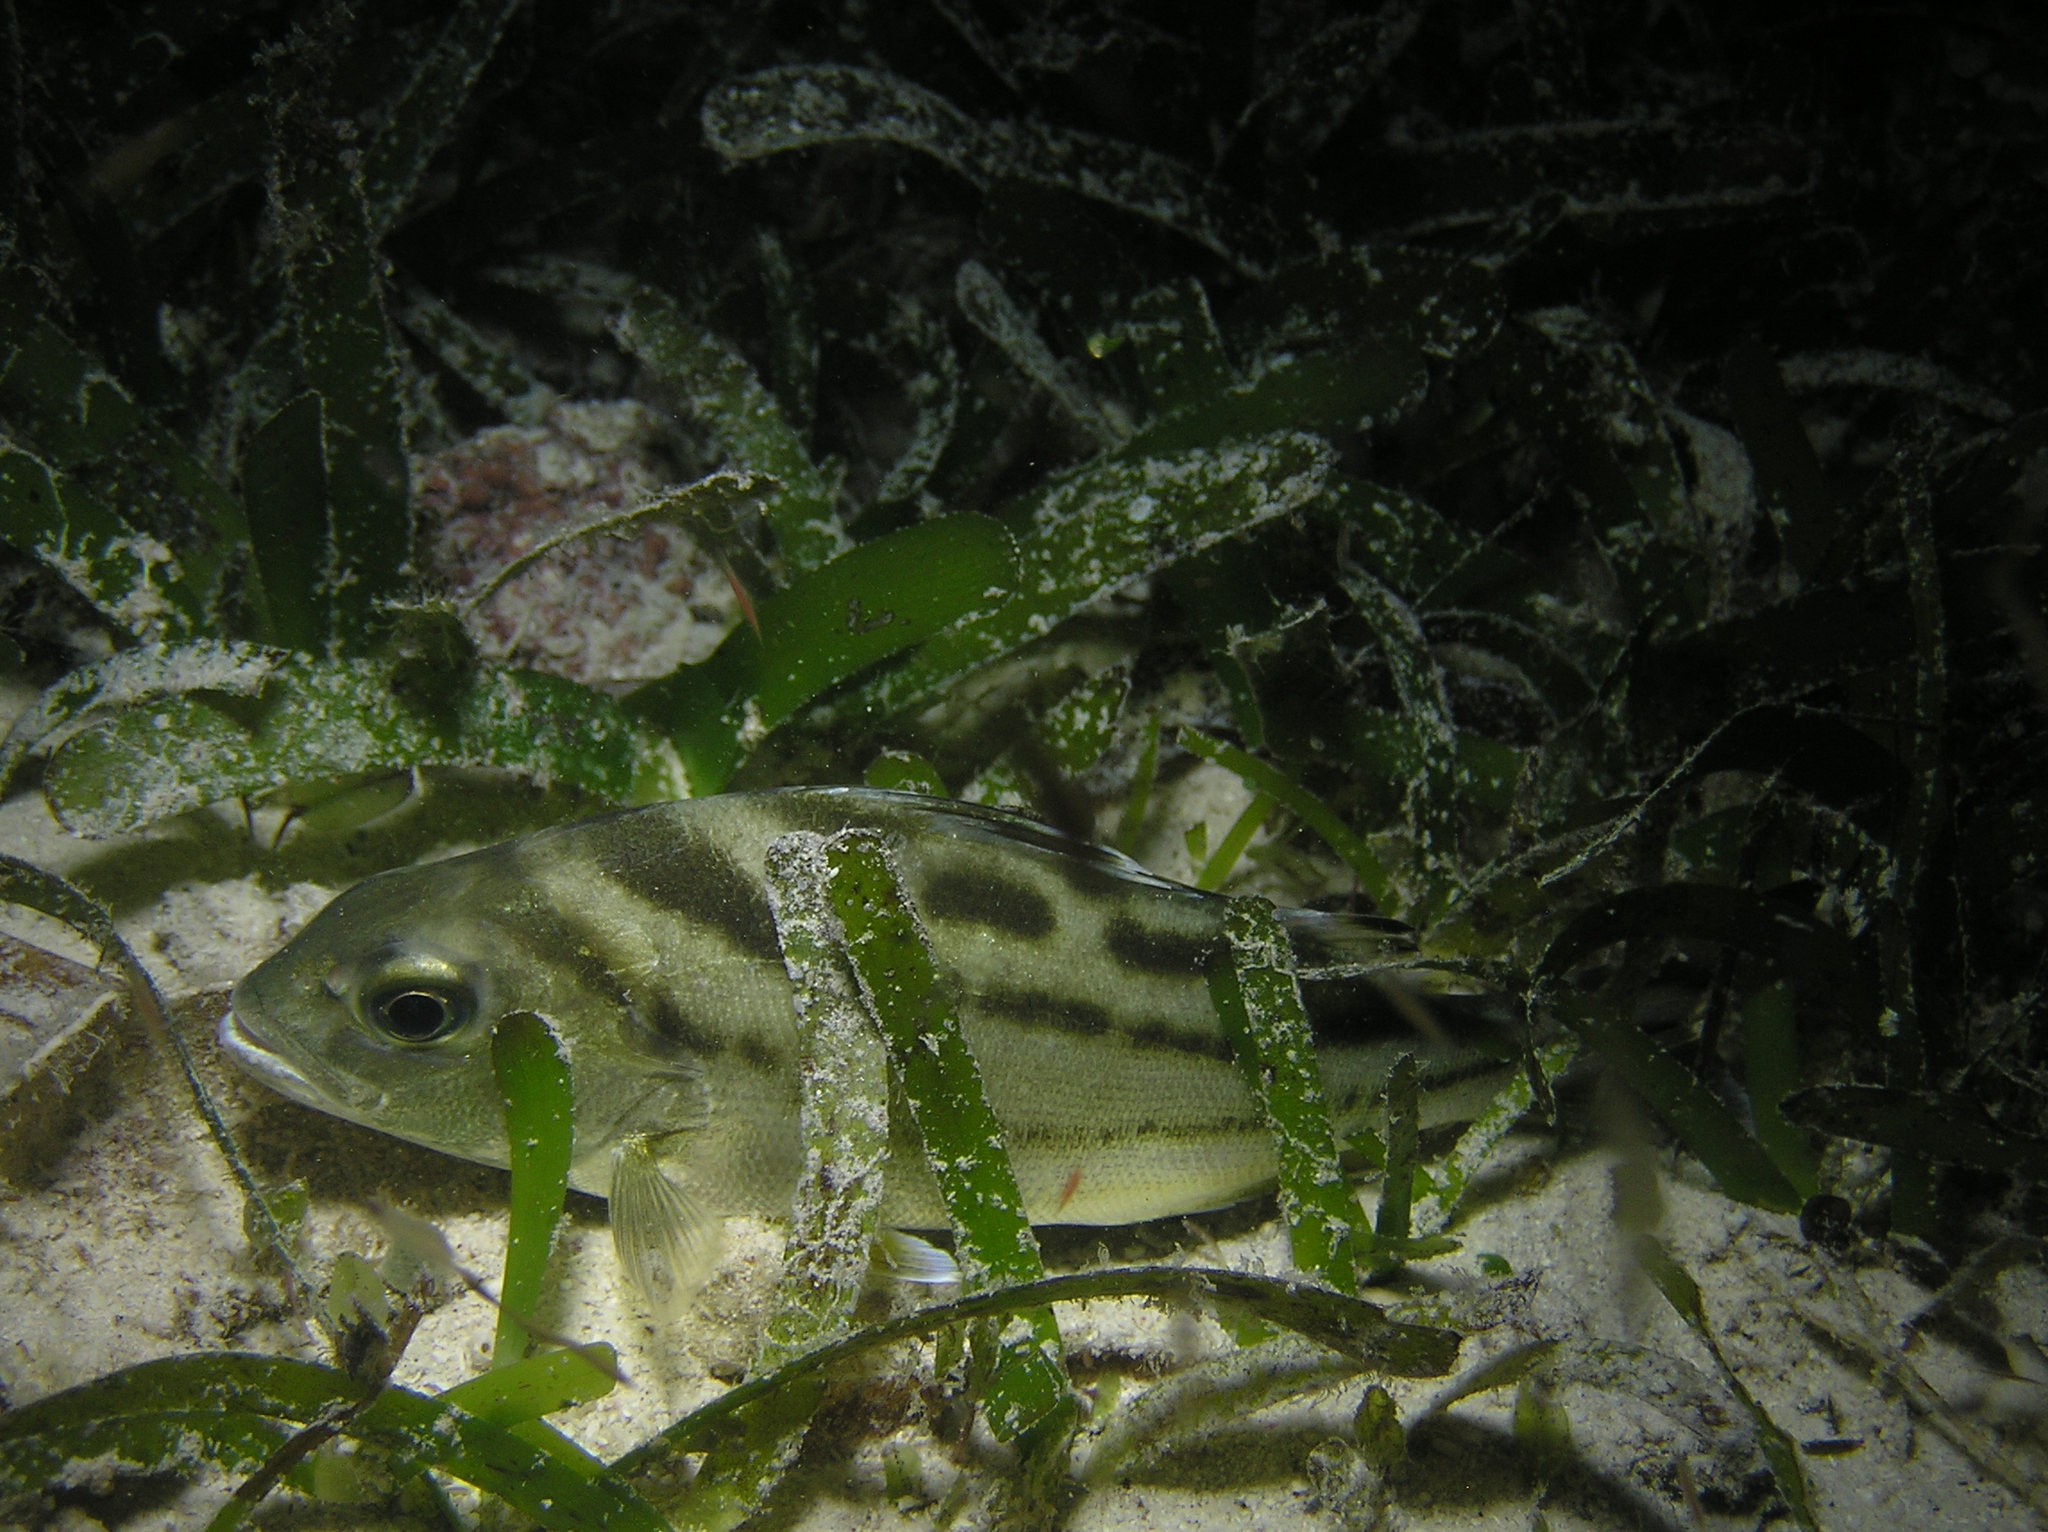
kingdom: Animalia
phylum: Chordata
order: Perciformes
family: Terapontidae
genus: Terapon
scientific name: Terapon jarbua
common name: Jarbua terapon
